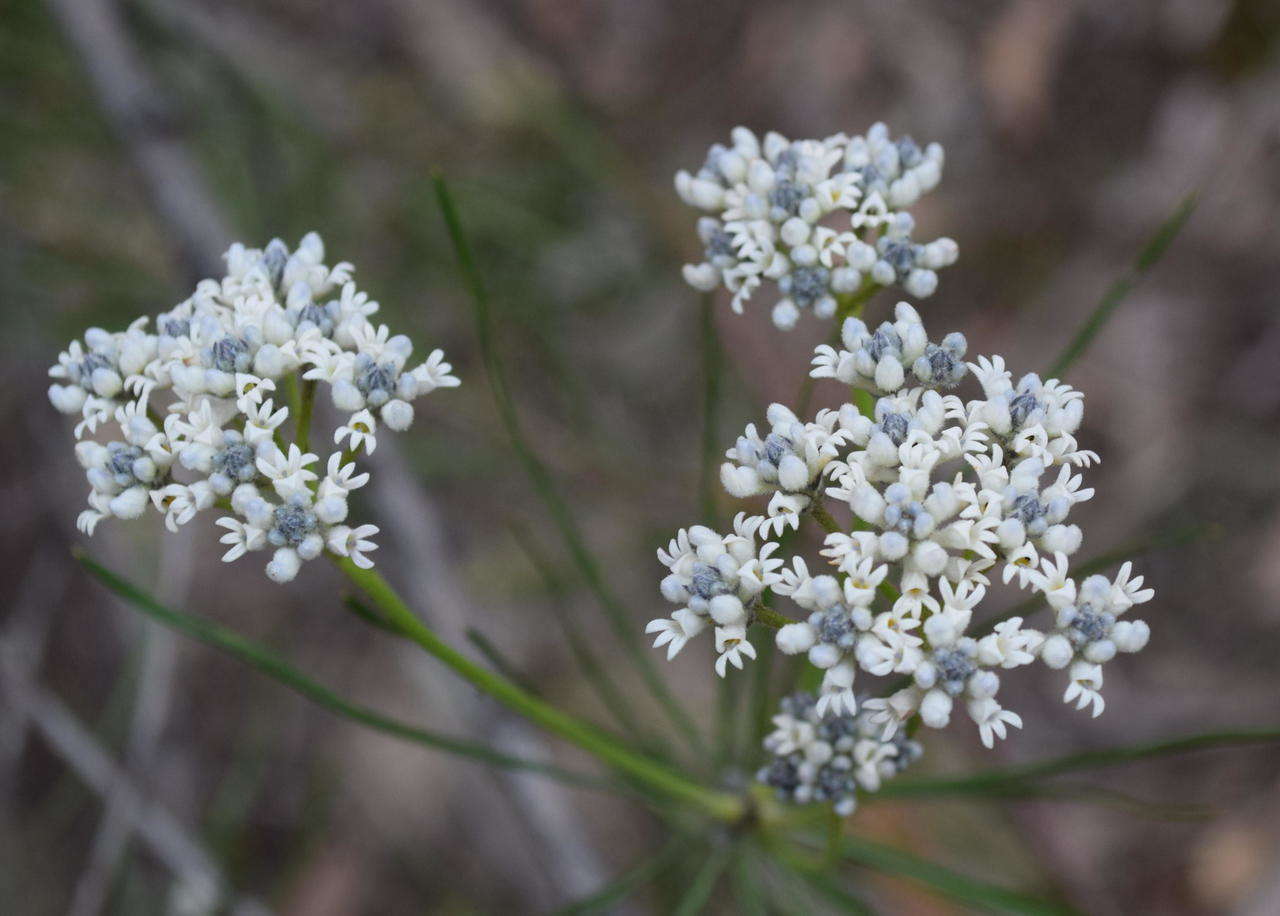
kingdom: Plantae
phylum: Tracheophyta
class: Magnoliopsida
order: Proteales
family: Proteaceae
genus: Conospermum
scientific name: Conospermum mitchellii
